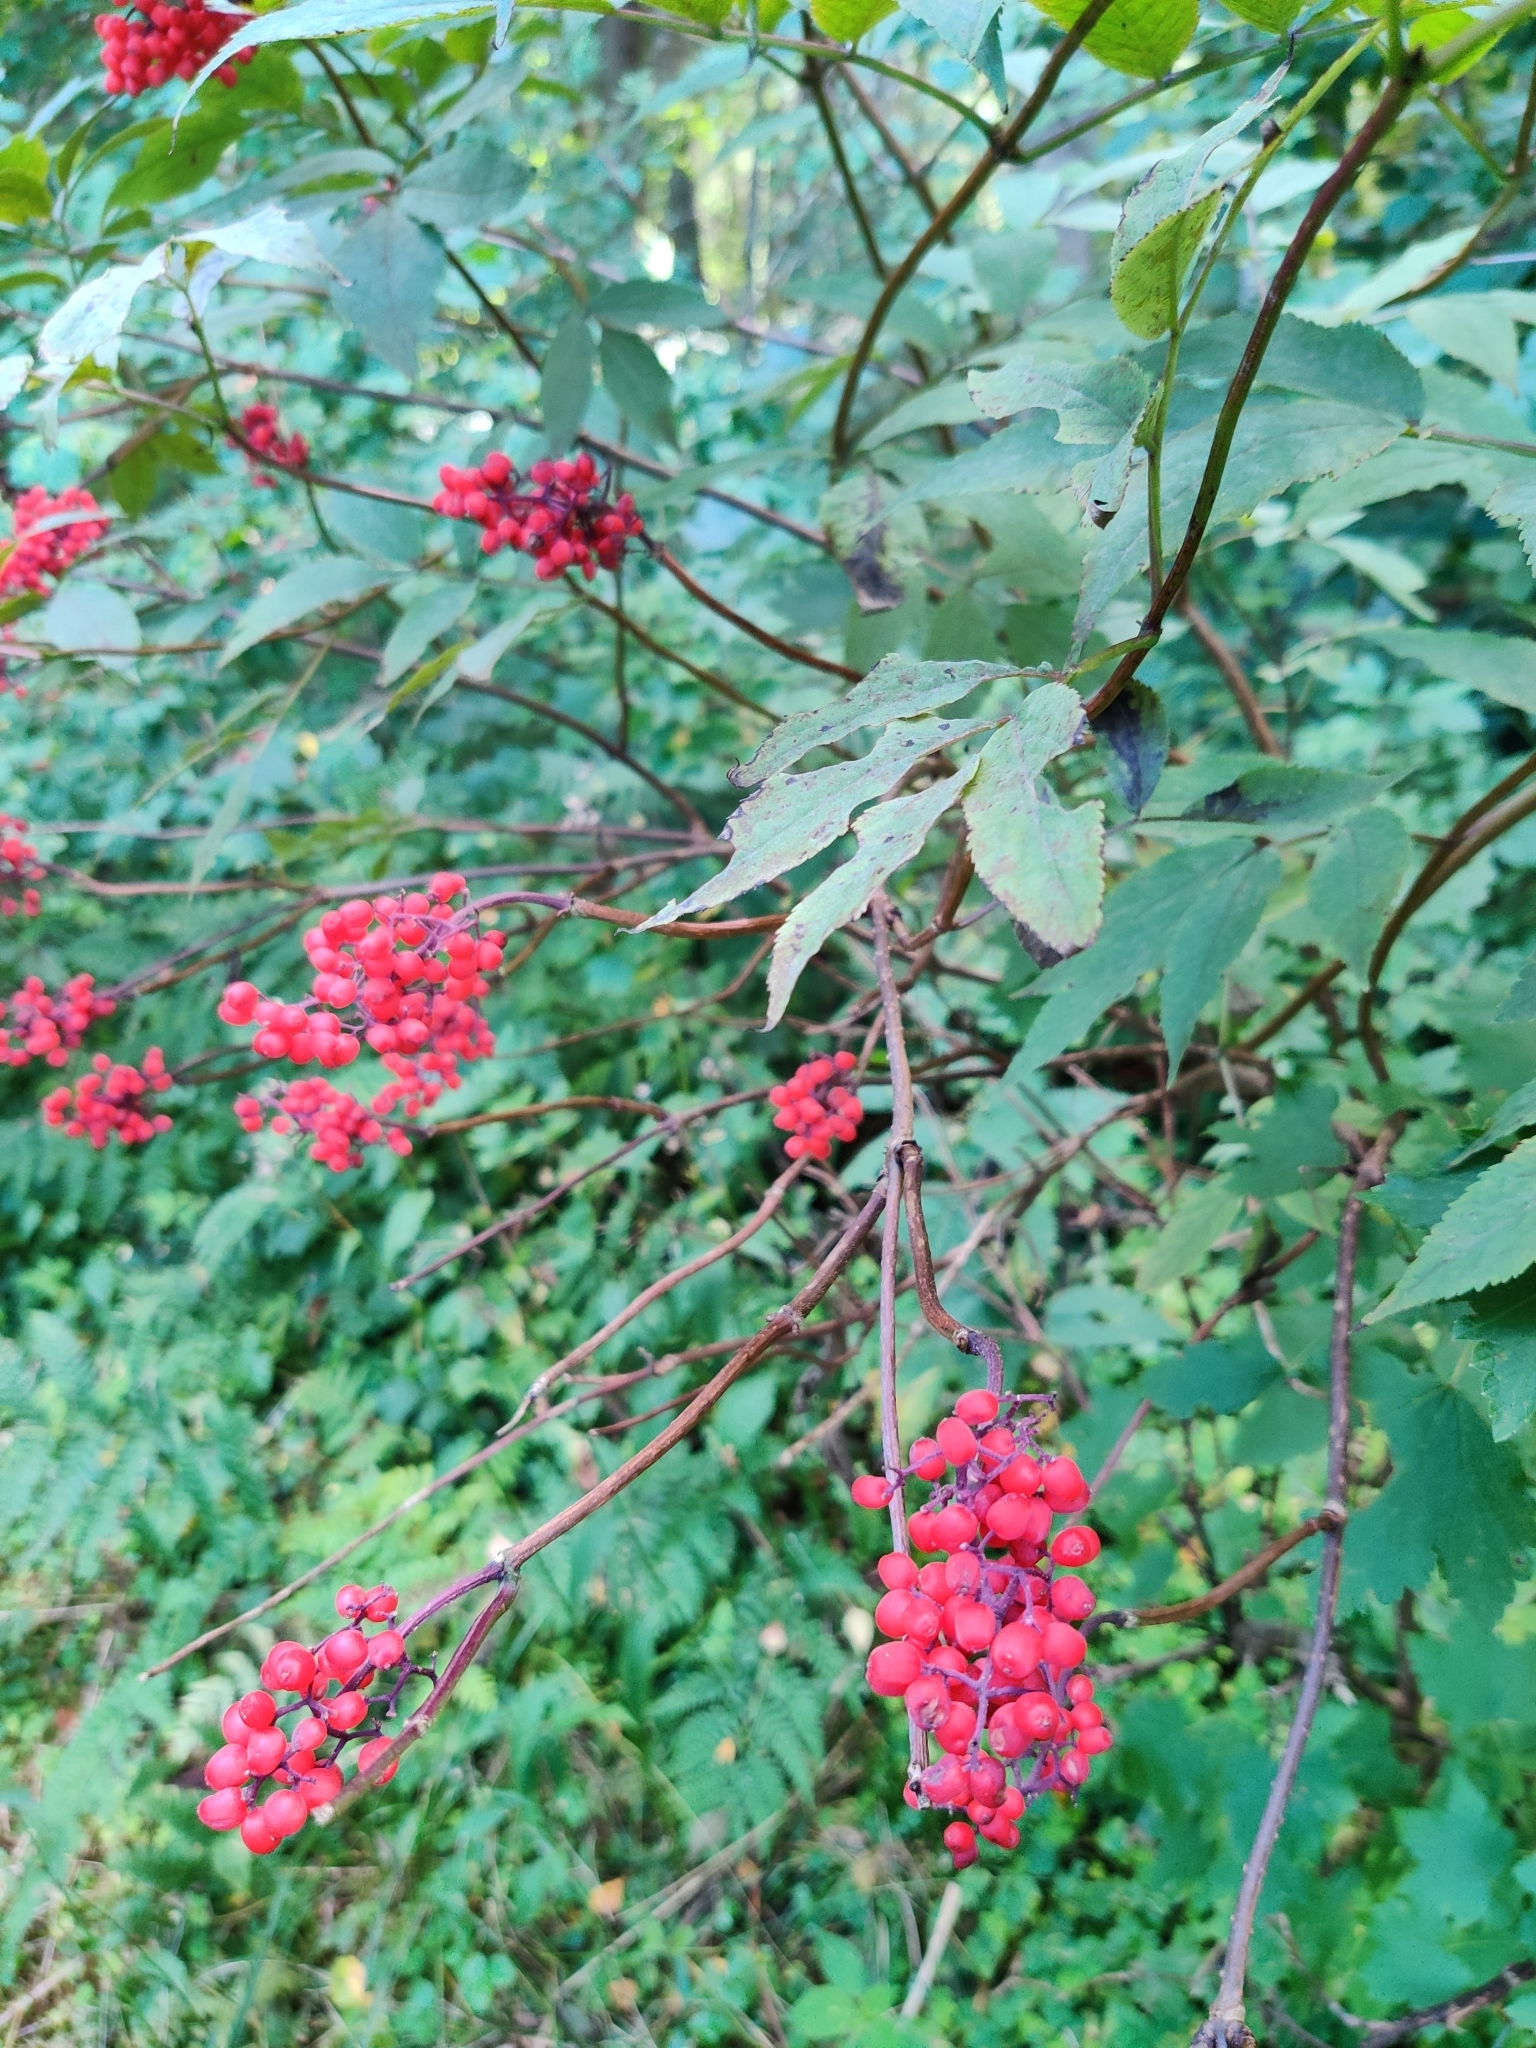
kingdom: Plantae
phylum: Tracheophyta
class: Magnoliopsida
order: Dipsacales
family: Viburnaceae
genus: Sambucus
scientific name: Sambucus racemosa
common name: Red-berried elder
